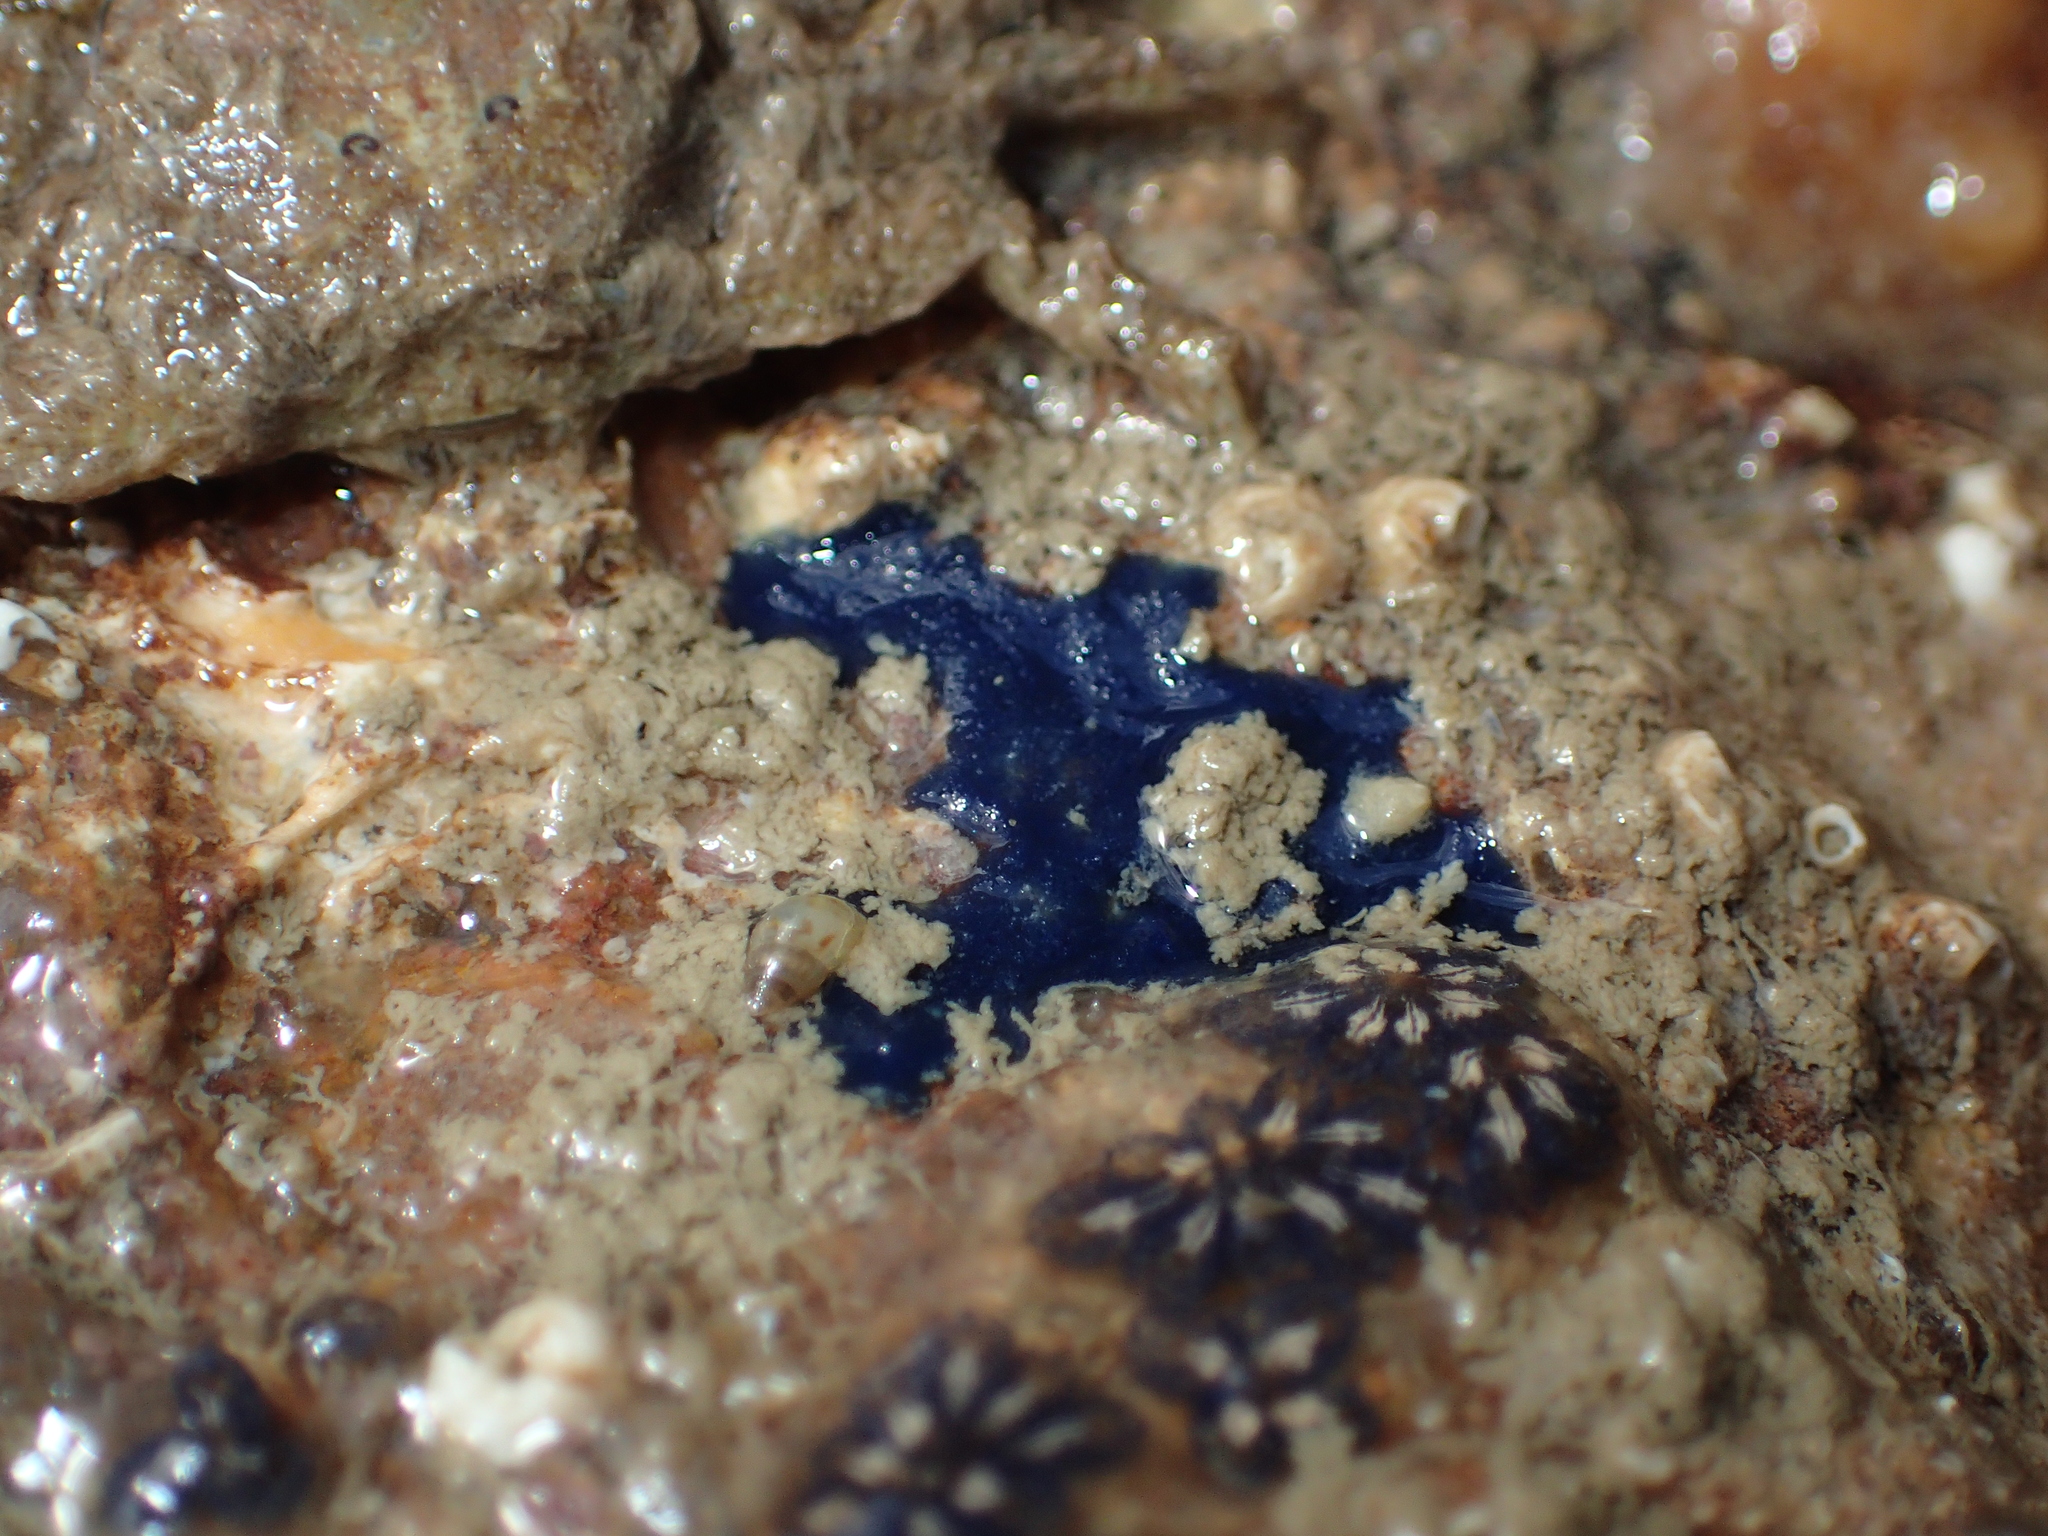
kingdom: Animalia
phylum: Porifera
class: Demospongiae
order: Suberitida
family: Suberitidae
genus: Terpios
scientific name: Terpios gelatinosus
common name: Blue encrusting sponge
